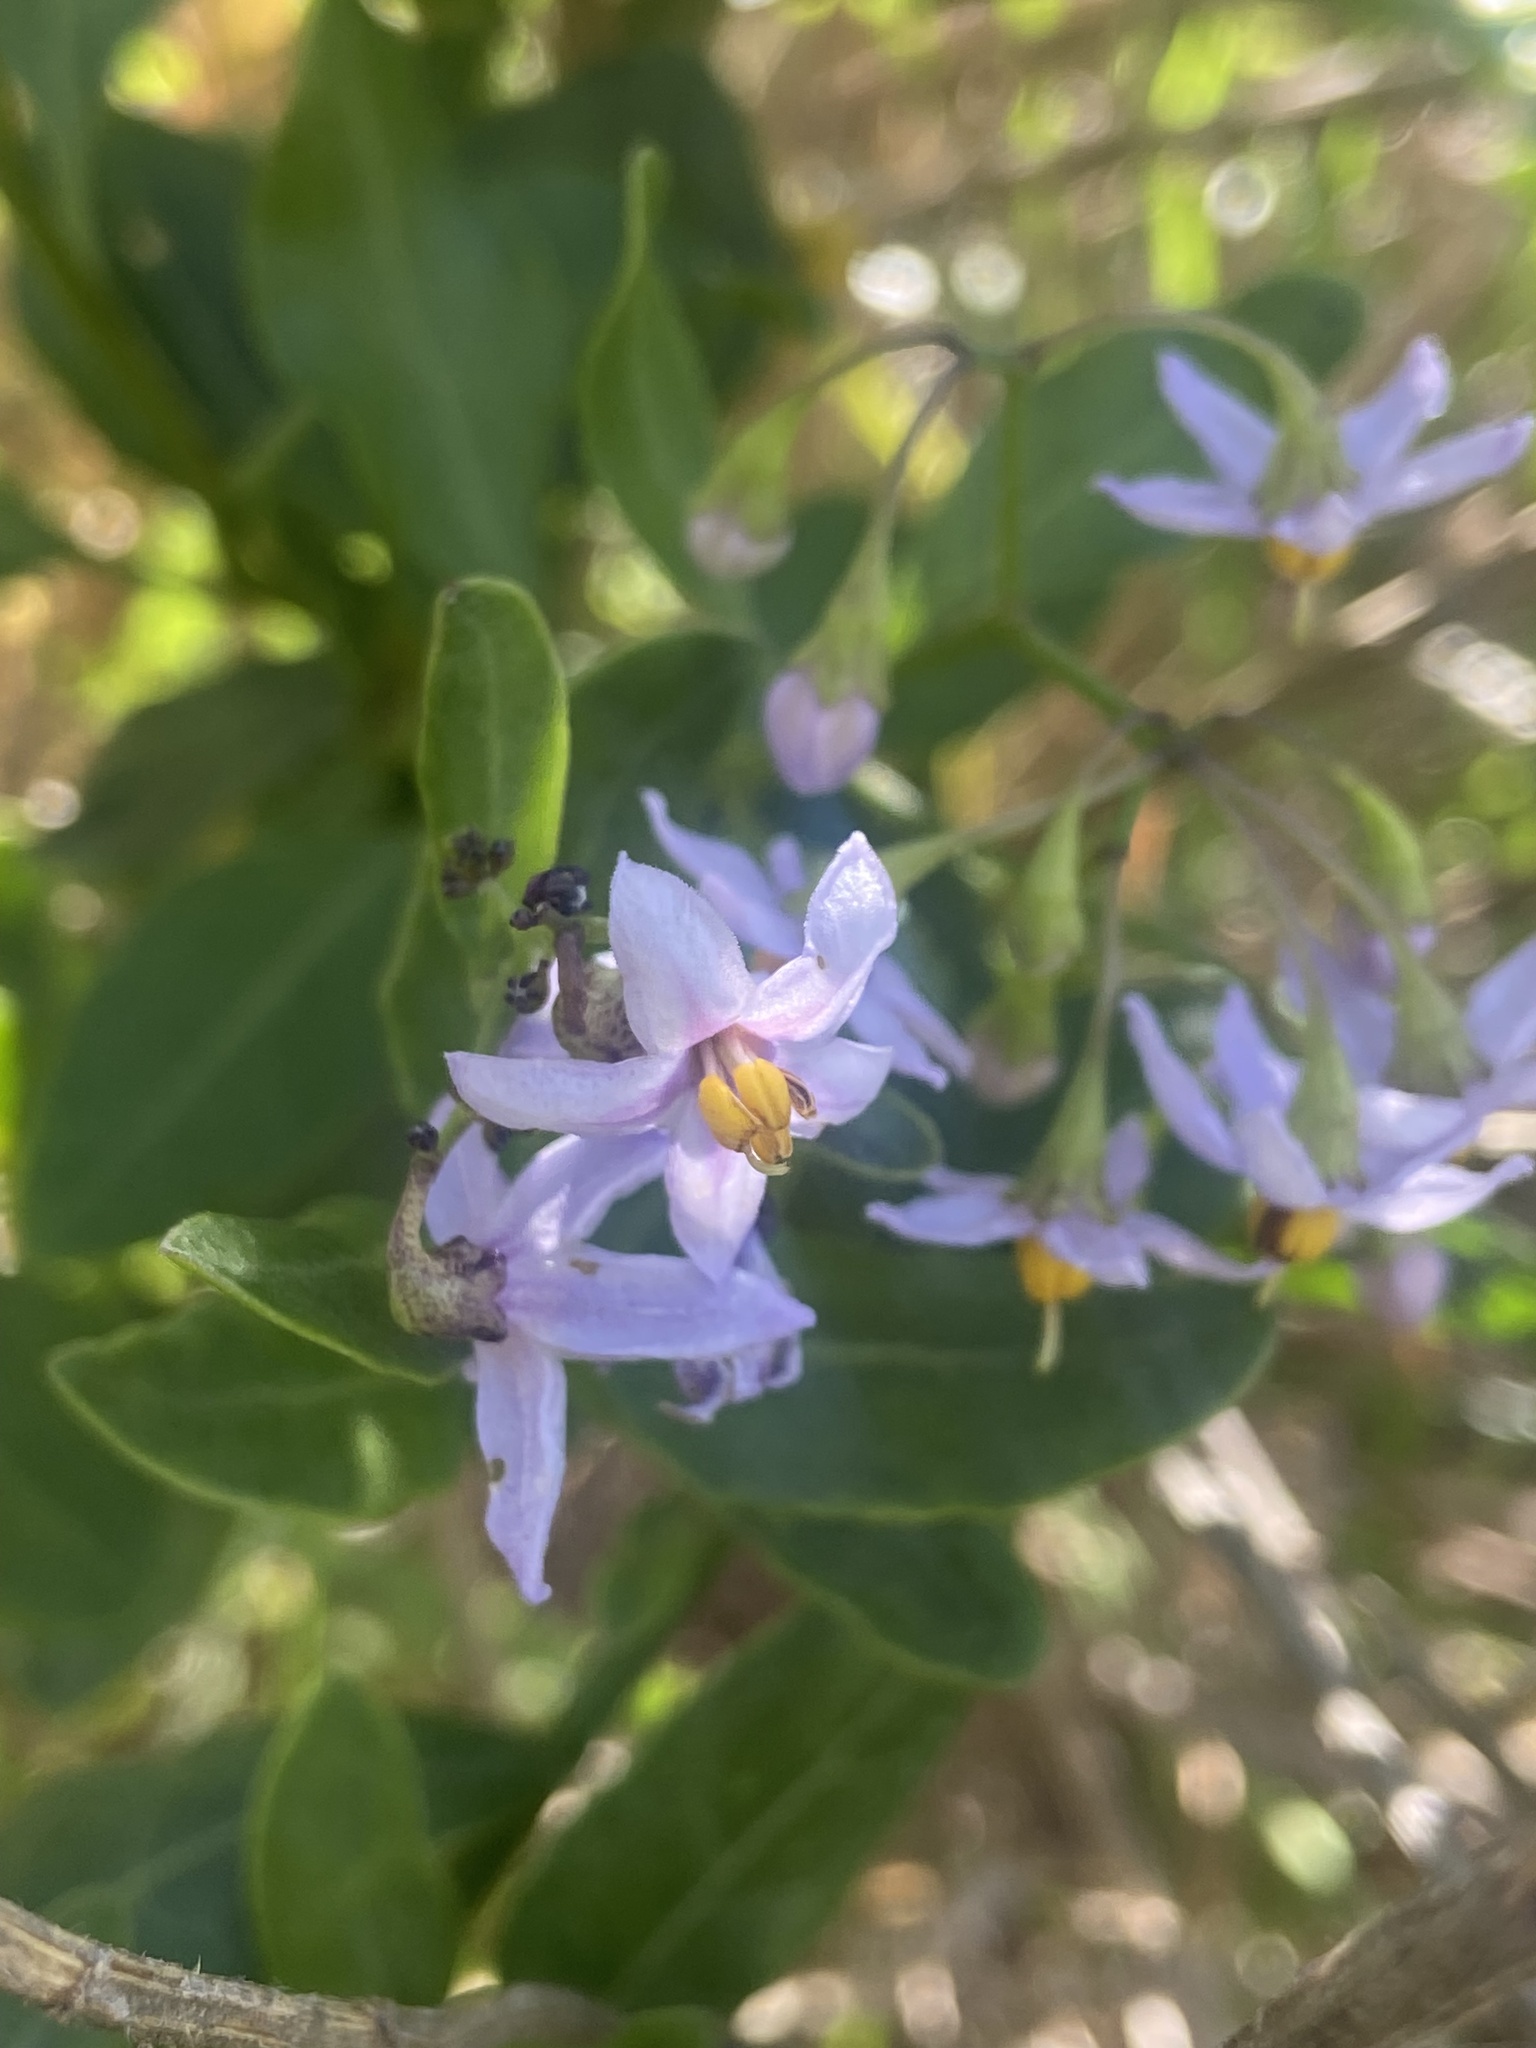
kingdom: Plantae
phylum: Tracheophyta
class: Magnoliopsida
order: Solanales
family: Solanaceae
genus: Solanum
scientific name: Solanum africanum
